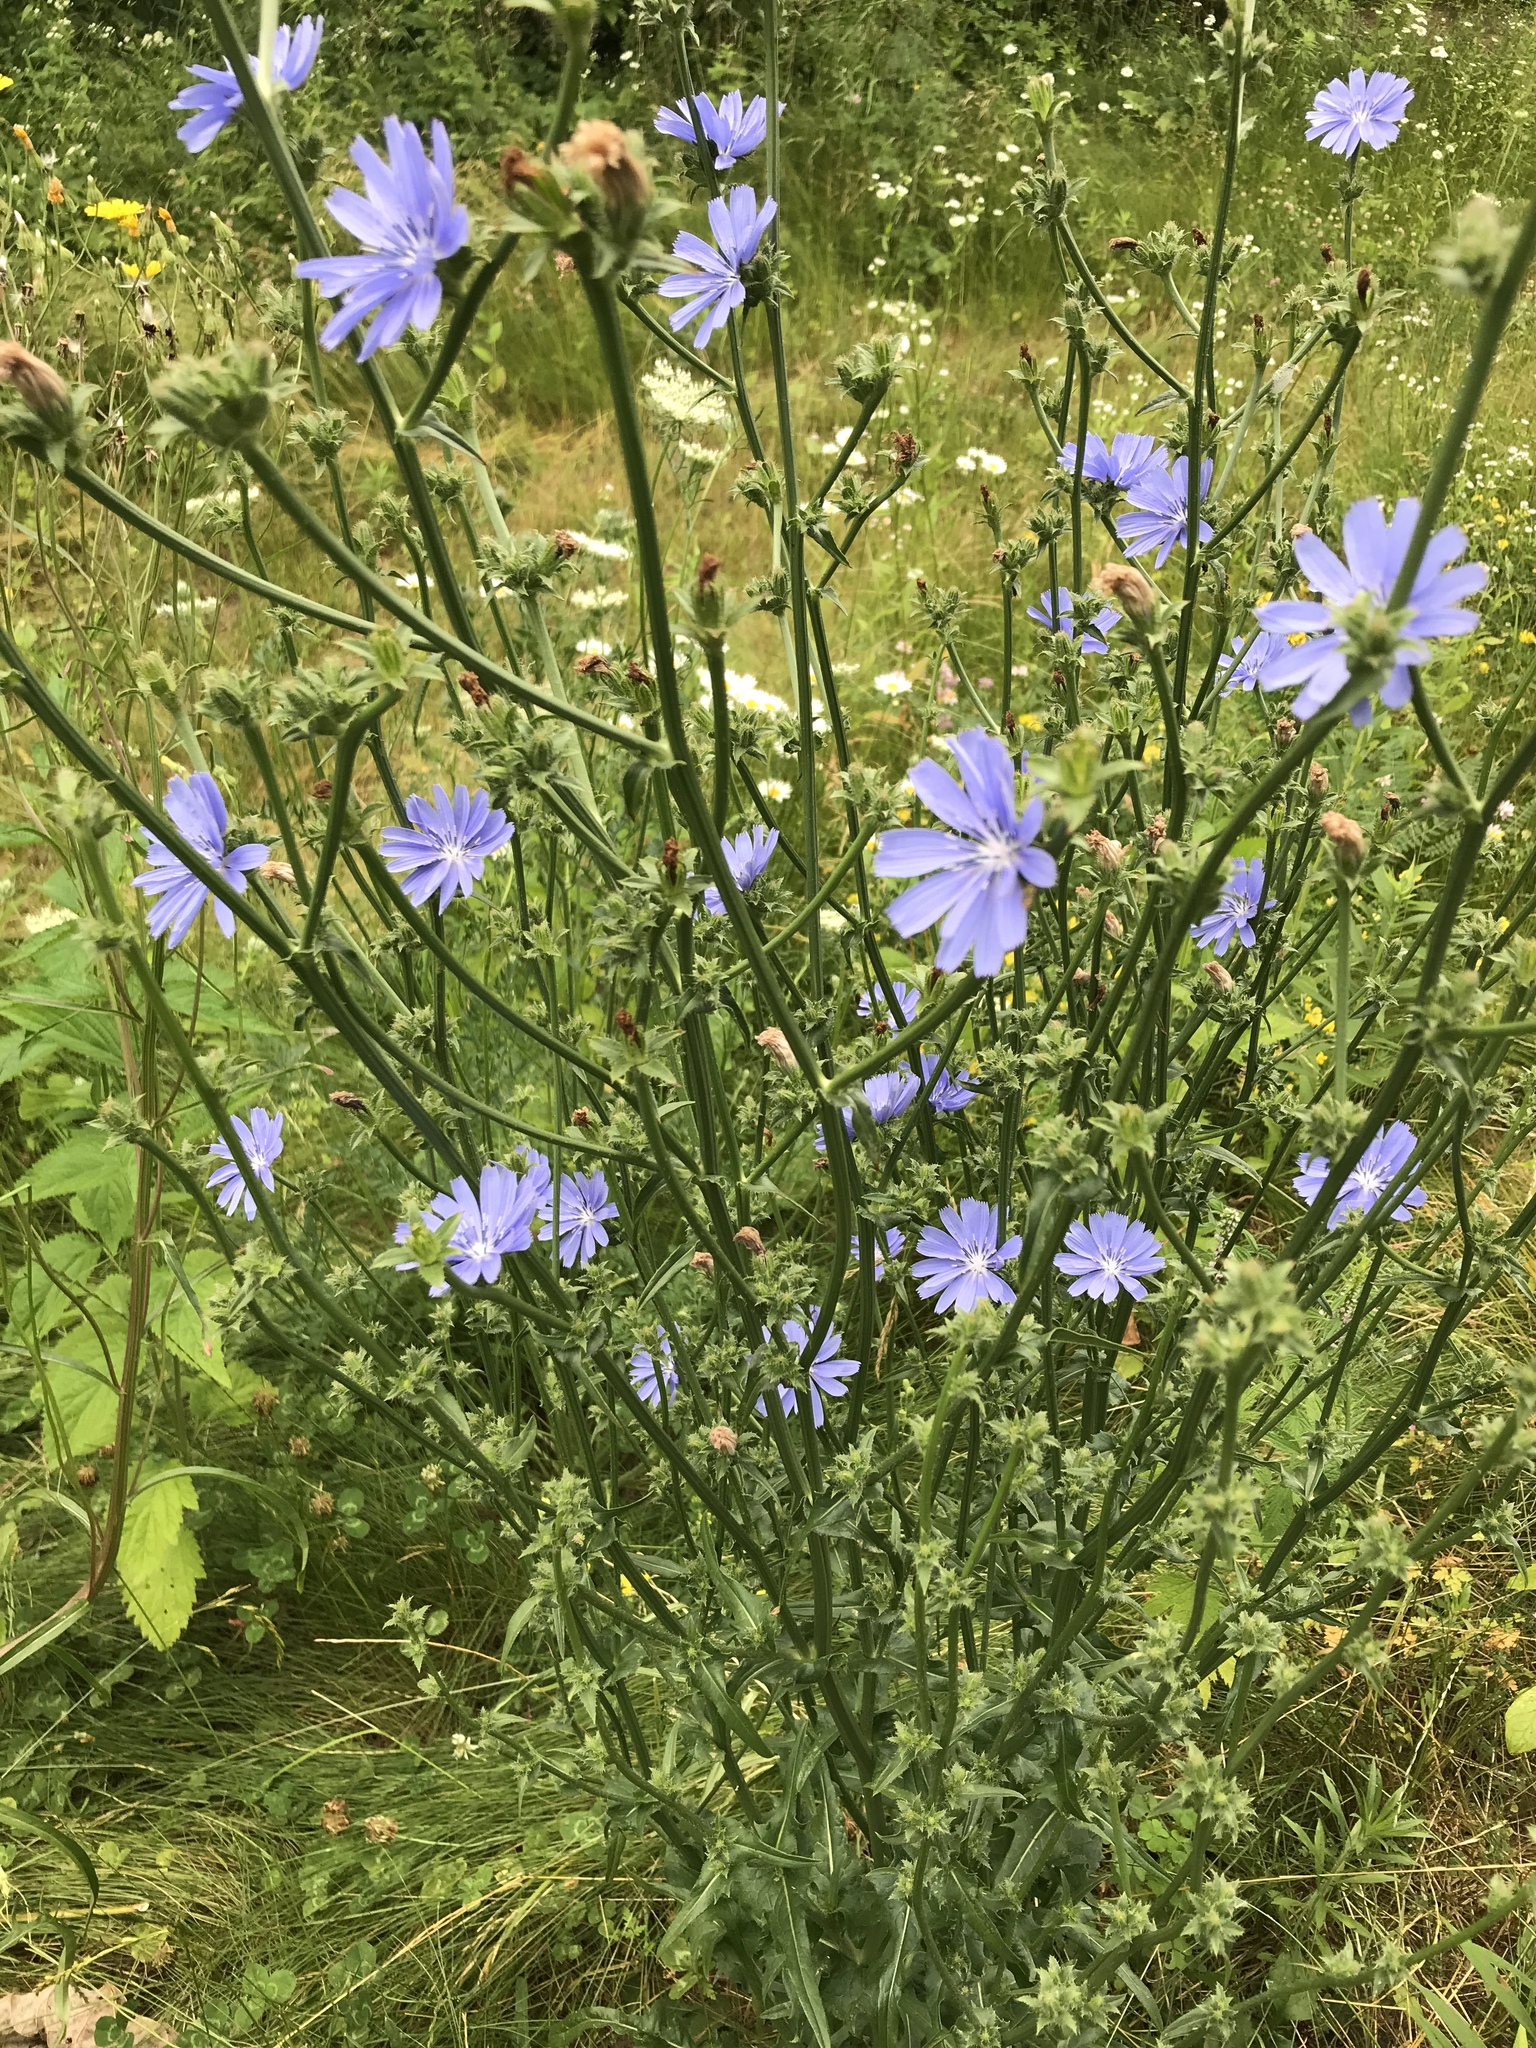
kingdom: Plantae
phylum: Tracheophyta
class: Magnoliopsida
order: Asterales
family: Asteraceae
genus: Cichorium
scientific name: Cichorium intybus
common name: Chicory
